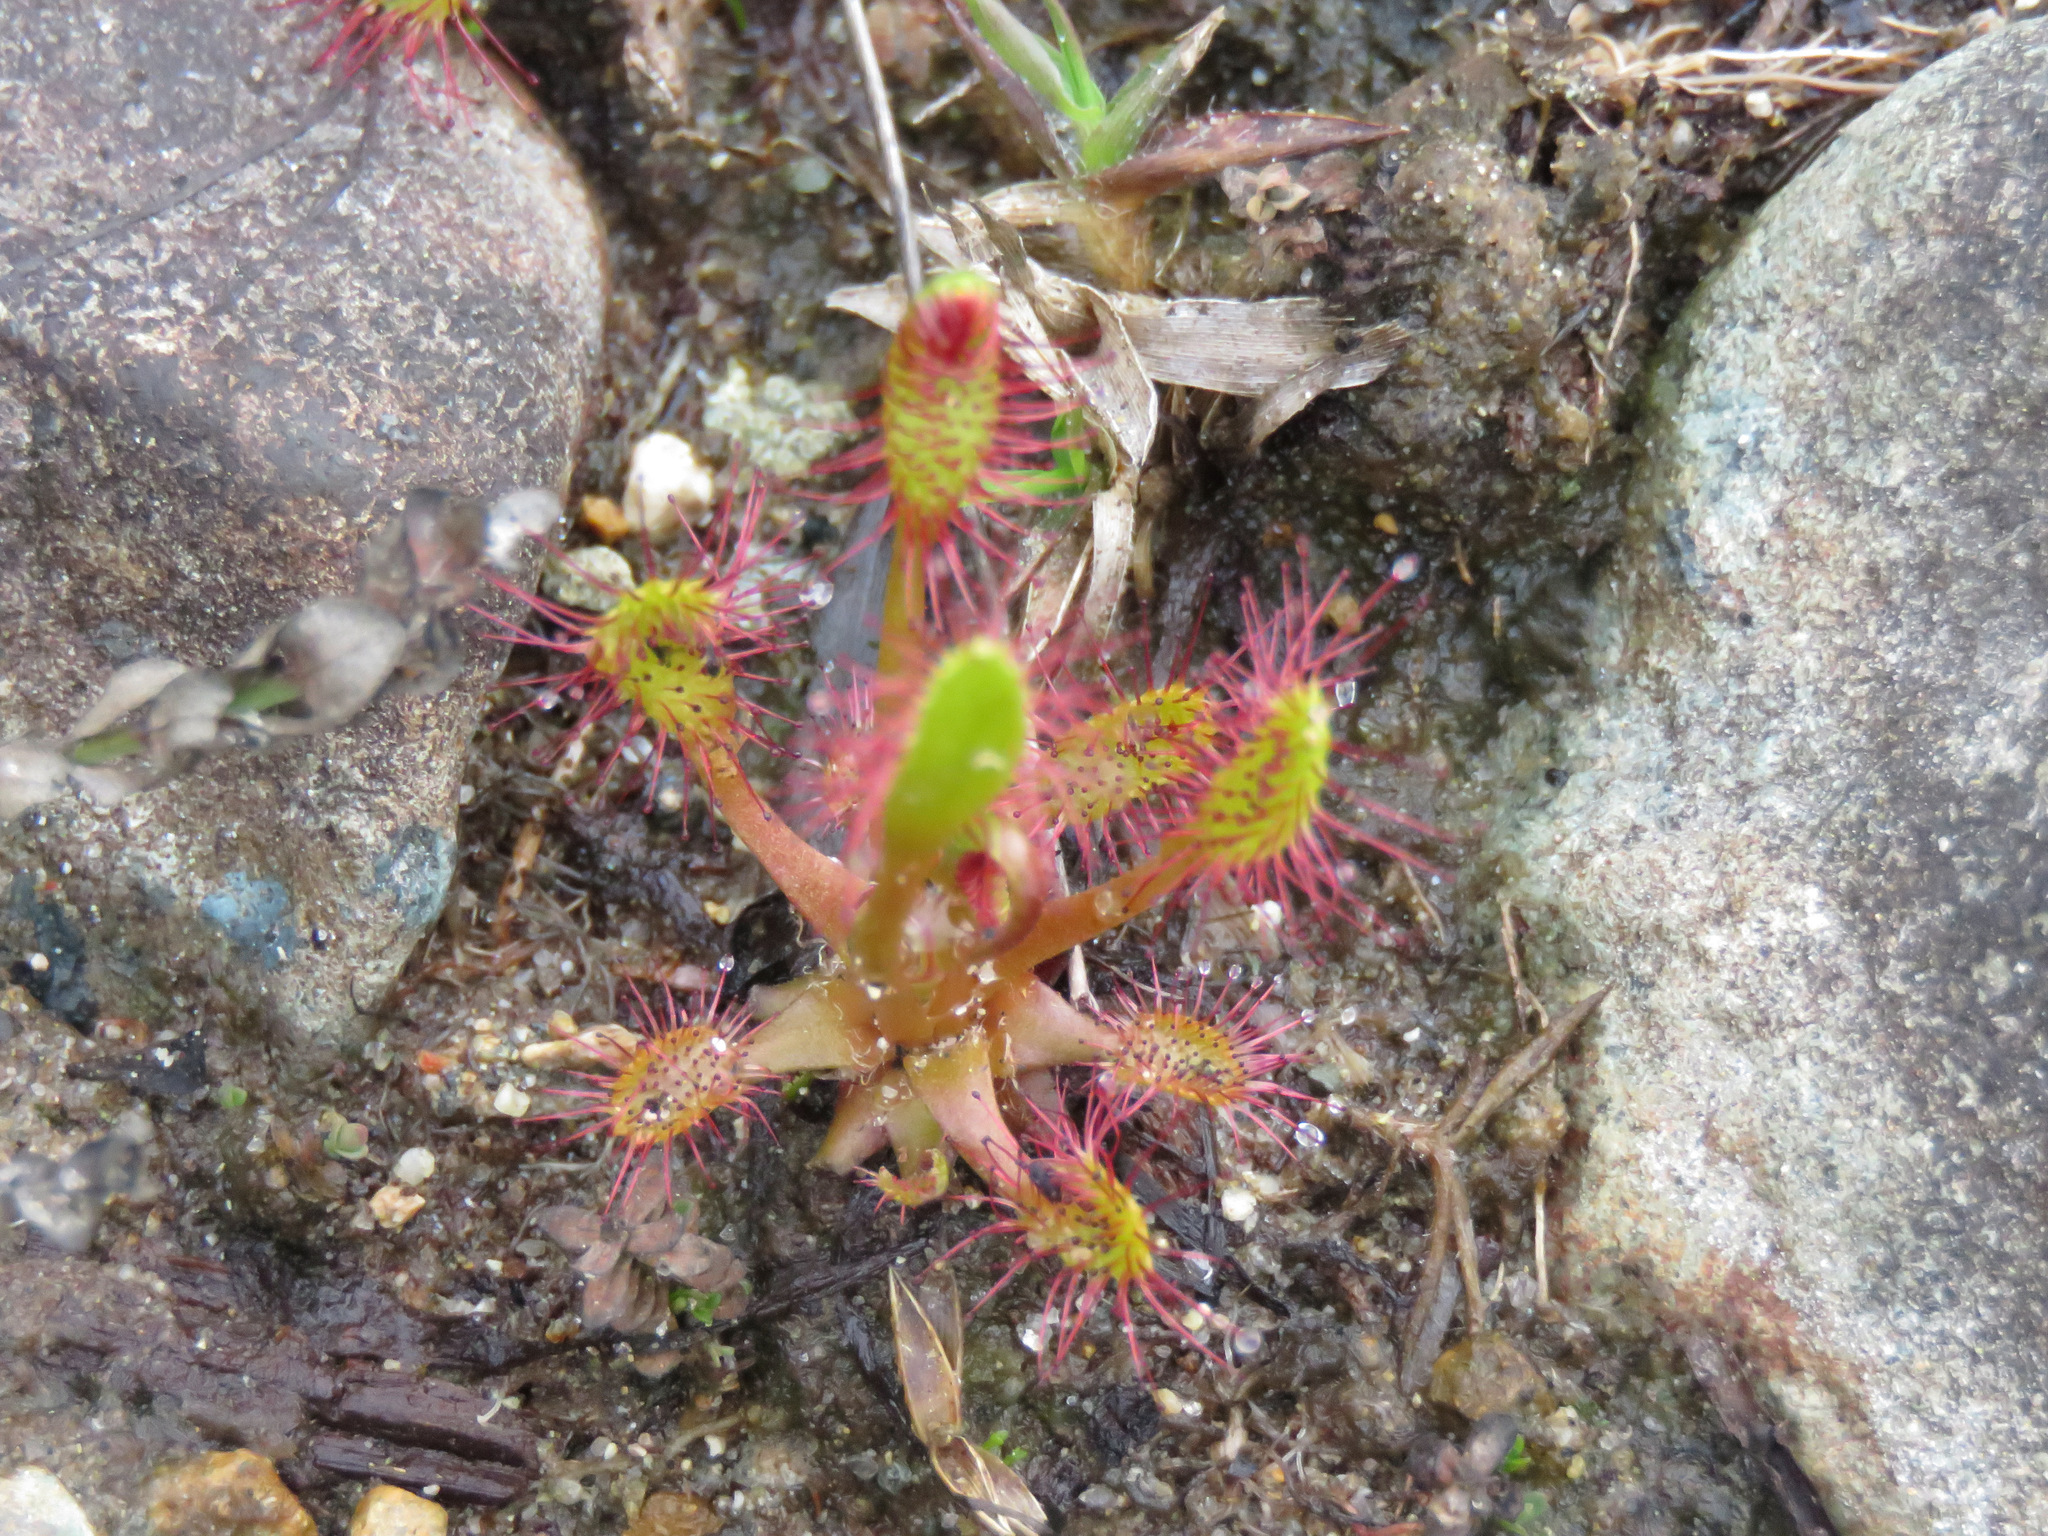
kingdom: Plantae
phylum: Tracheophyta
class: Magnoliopsida
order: Caryophyllales
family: Droseraceae
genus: Drosera
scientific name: Drosera anglica
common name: Great sundew
